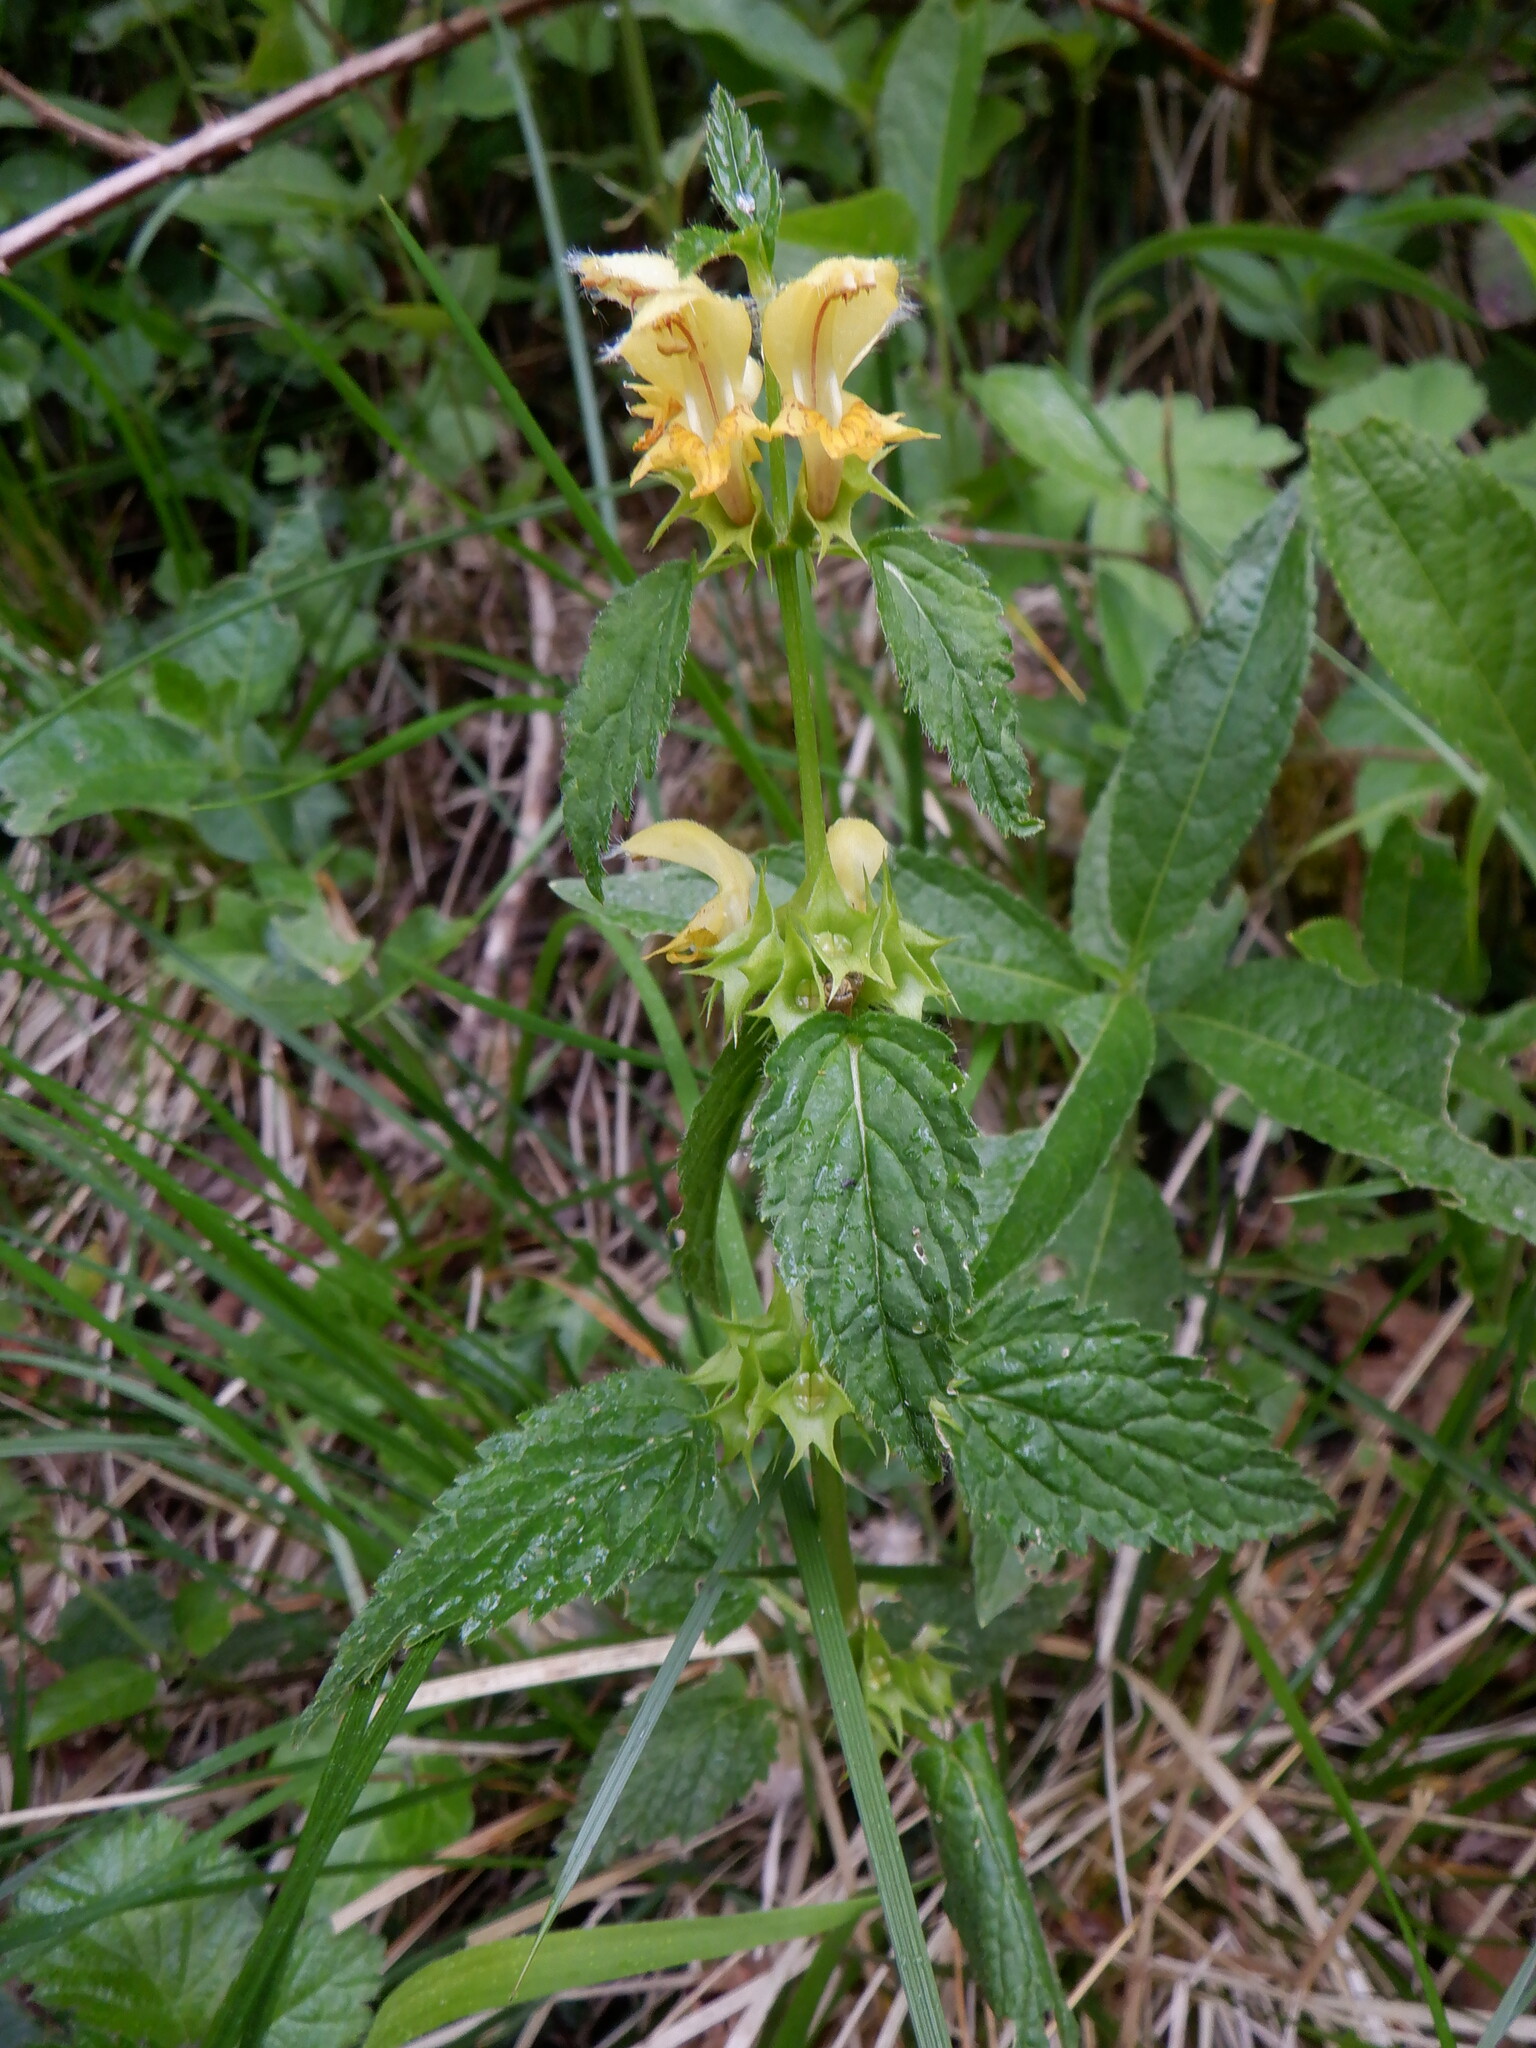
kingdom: Plantae
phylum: Tracheophyta
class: Magnoliopsida
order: Lamiales
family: Lamiaceae
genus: Lamium
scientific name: Lamium galeobdolon
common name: Yellow archangel
